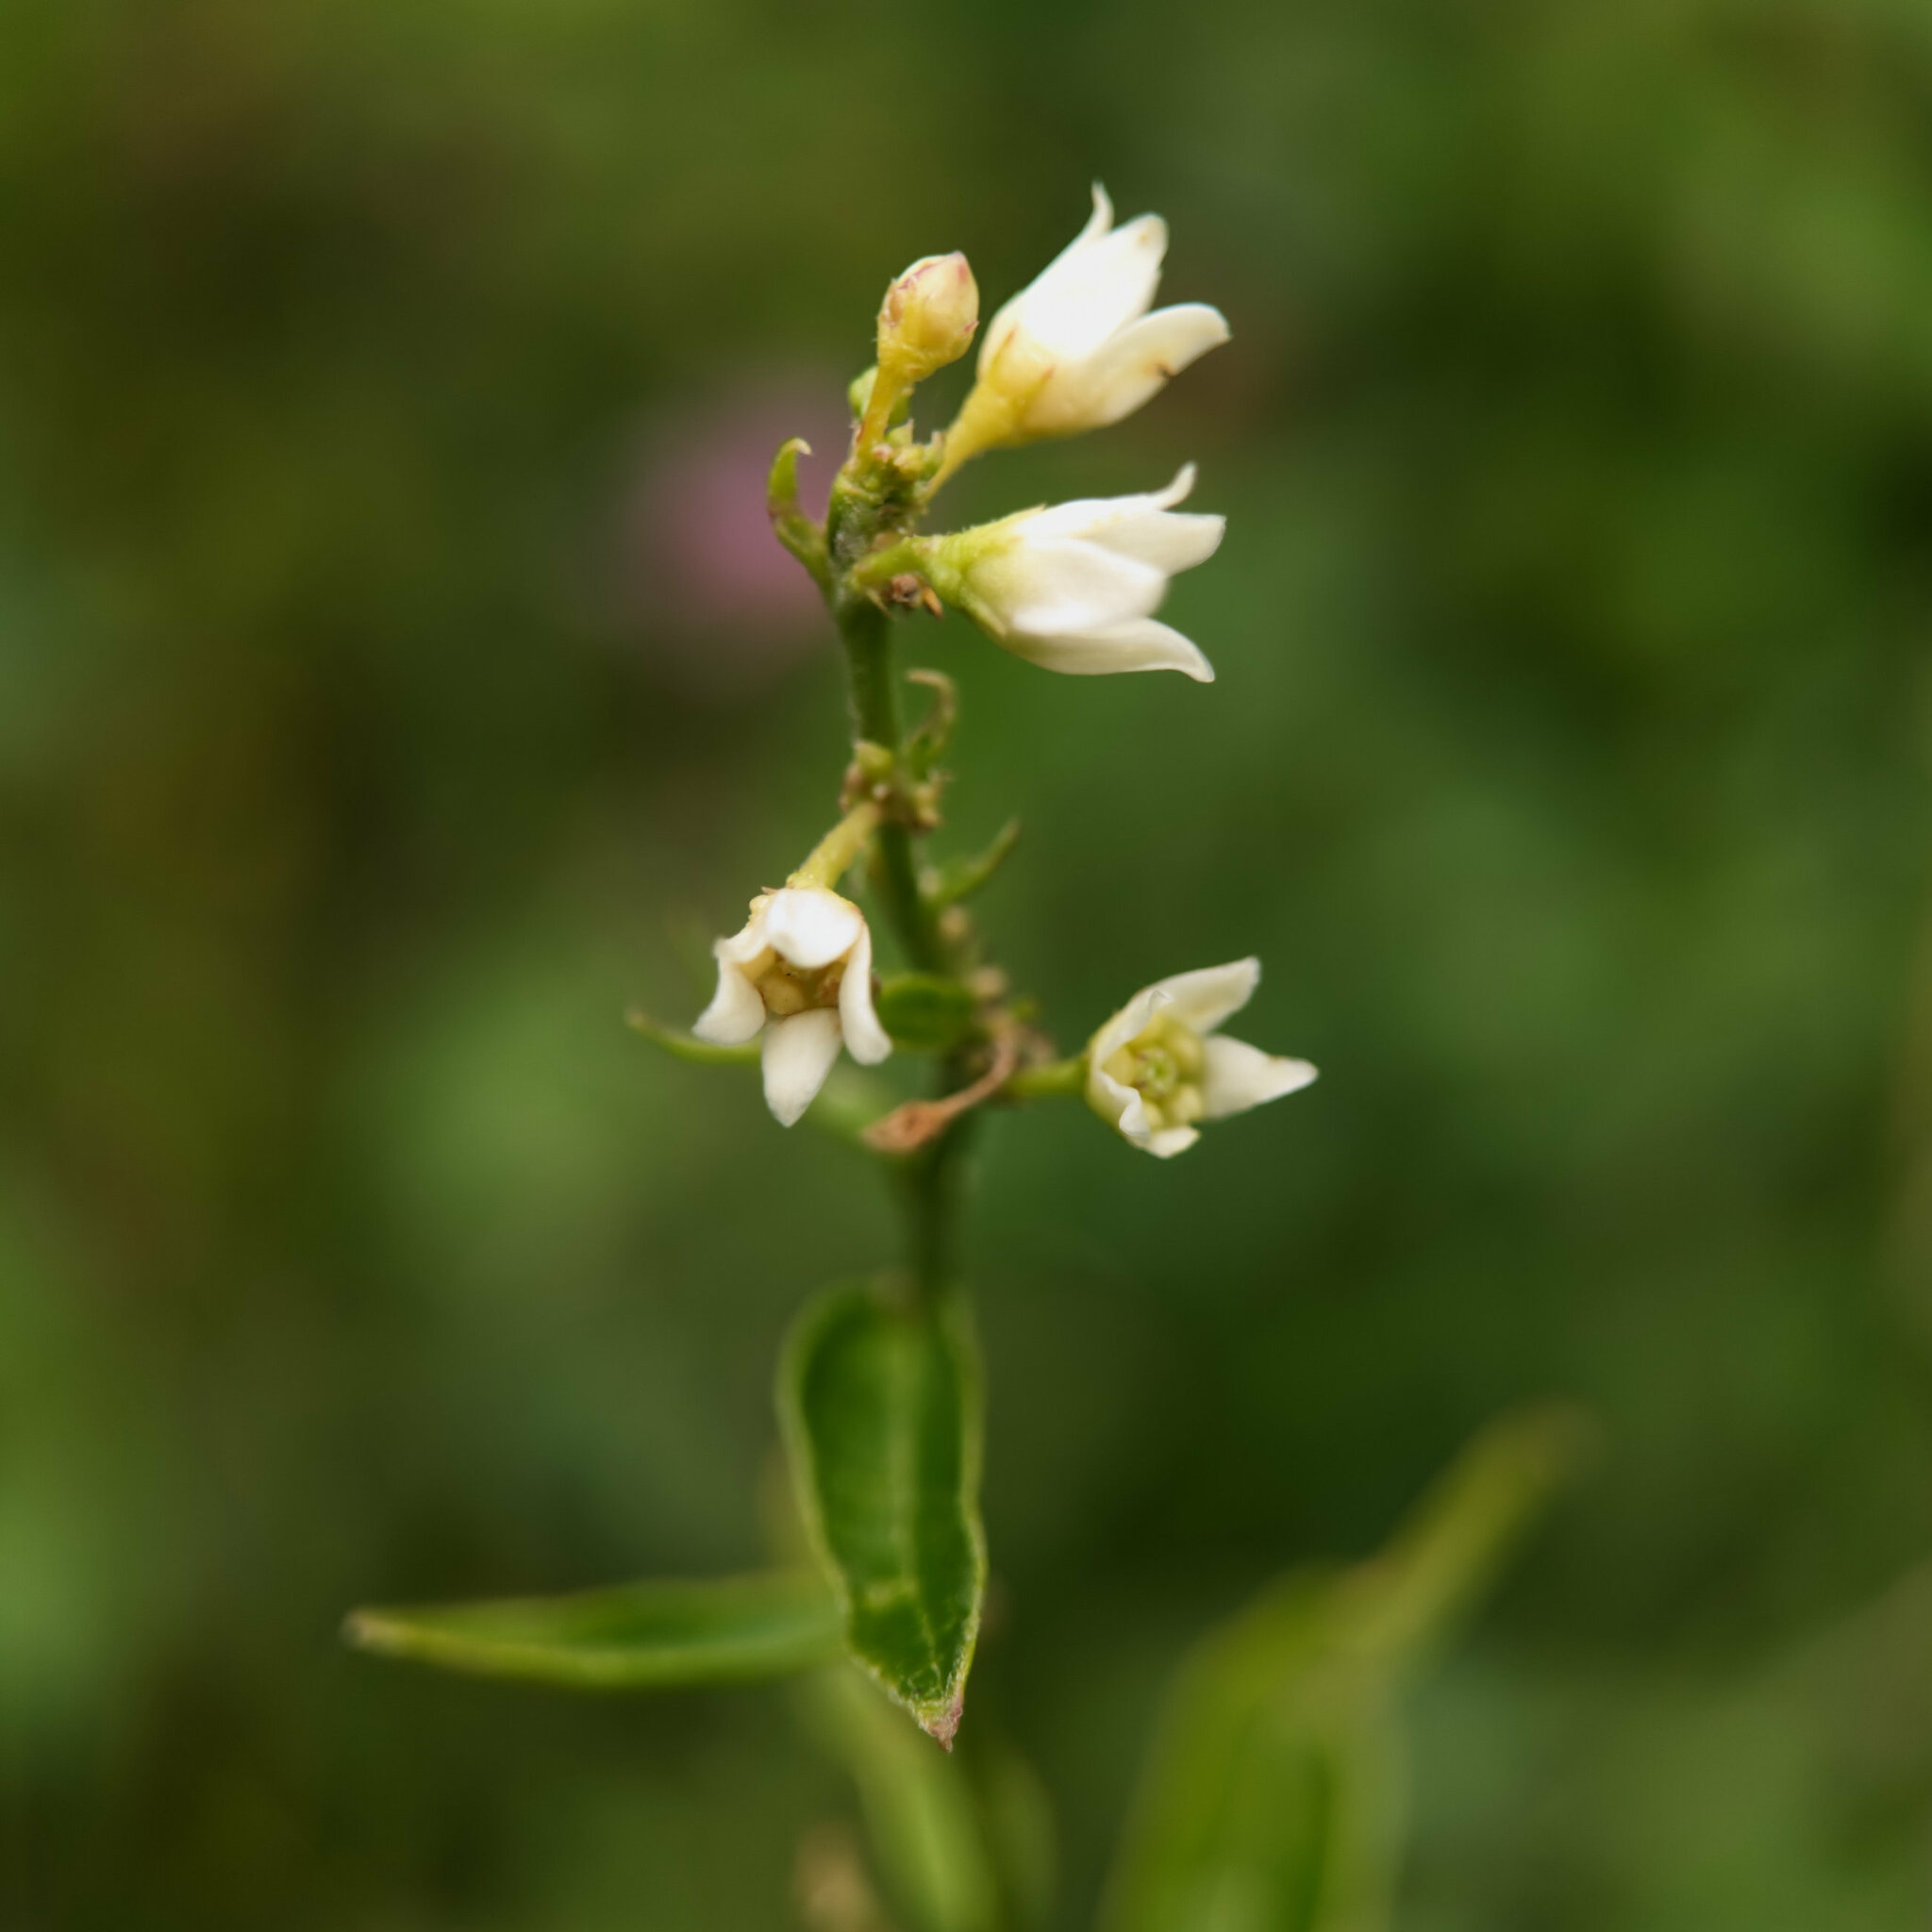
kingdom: Plantae
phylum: Tracheophyta
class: Magnoliopsida
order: Gentianales
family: Apocynaceae
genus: Vincetoxicum
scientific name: Vincetoxicum hirundinaria
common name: White swallowwort
